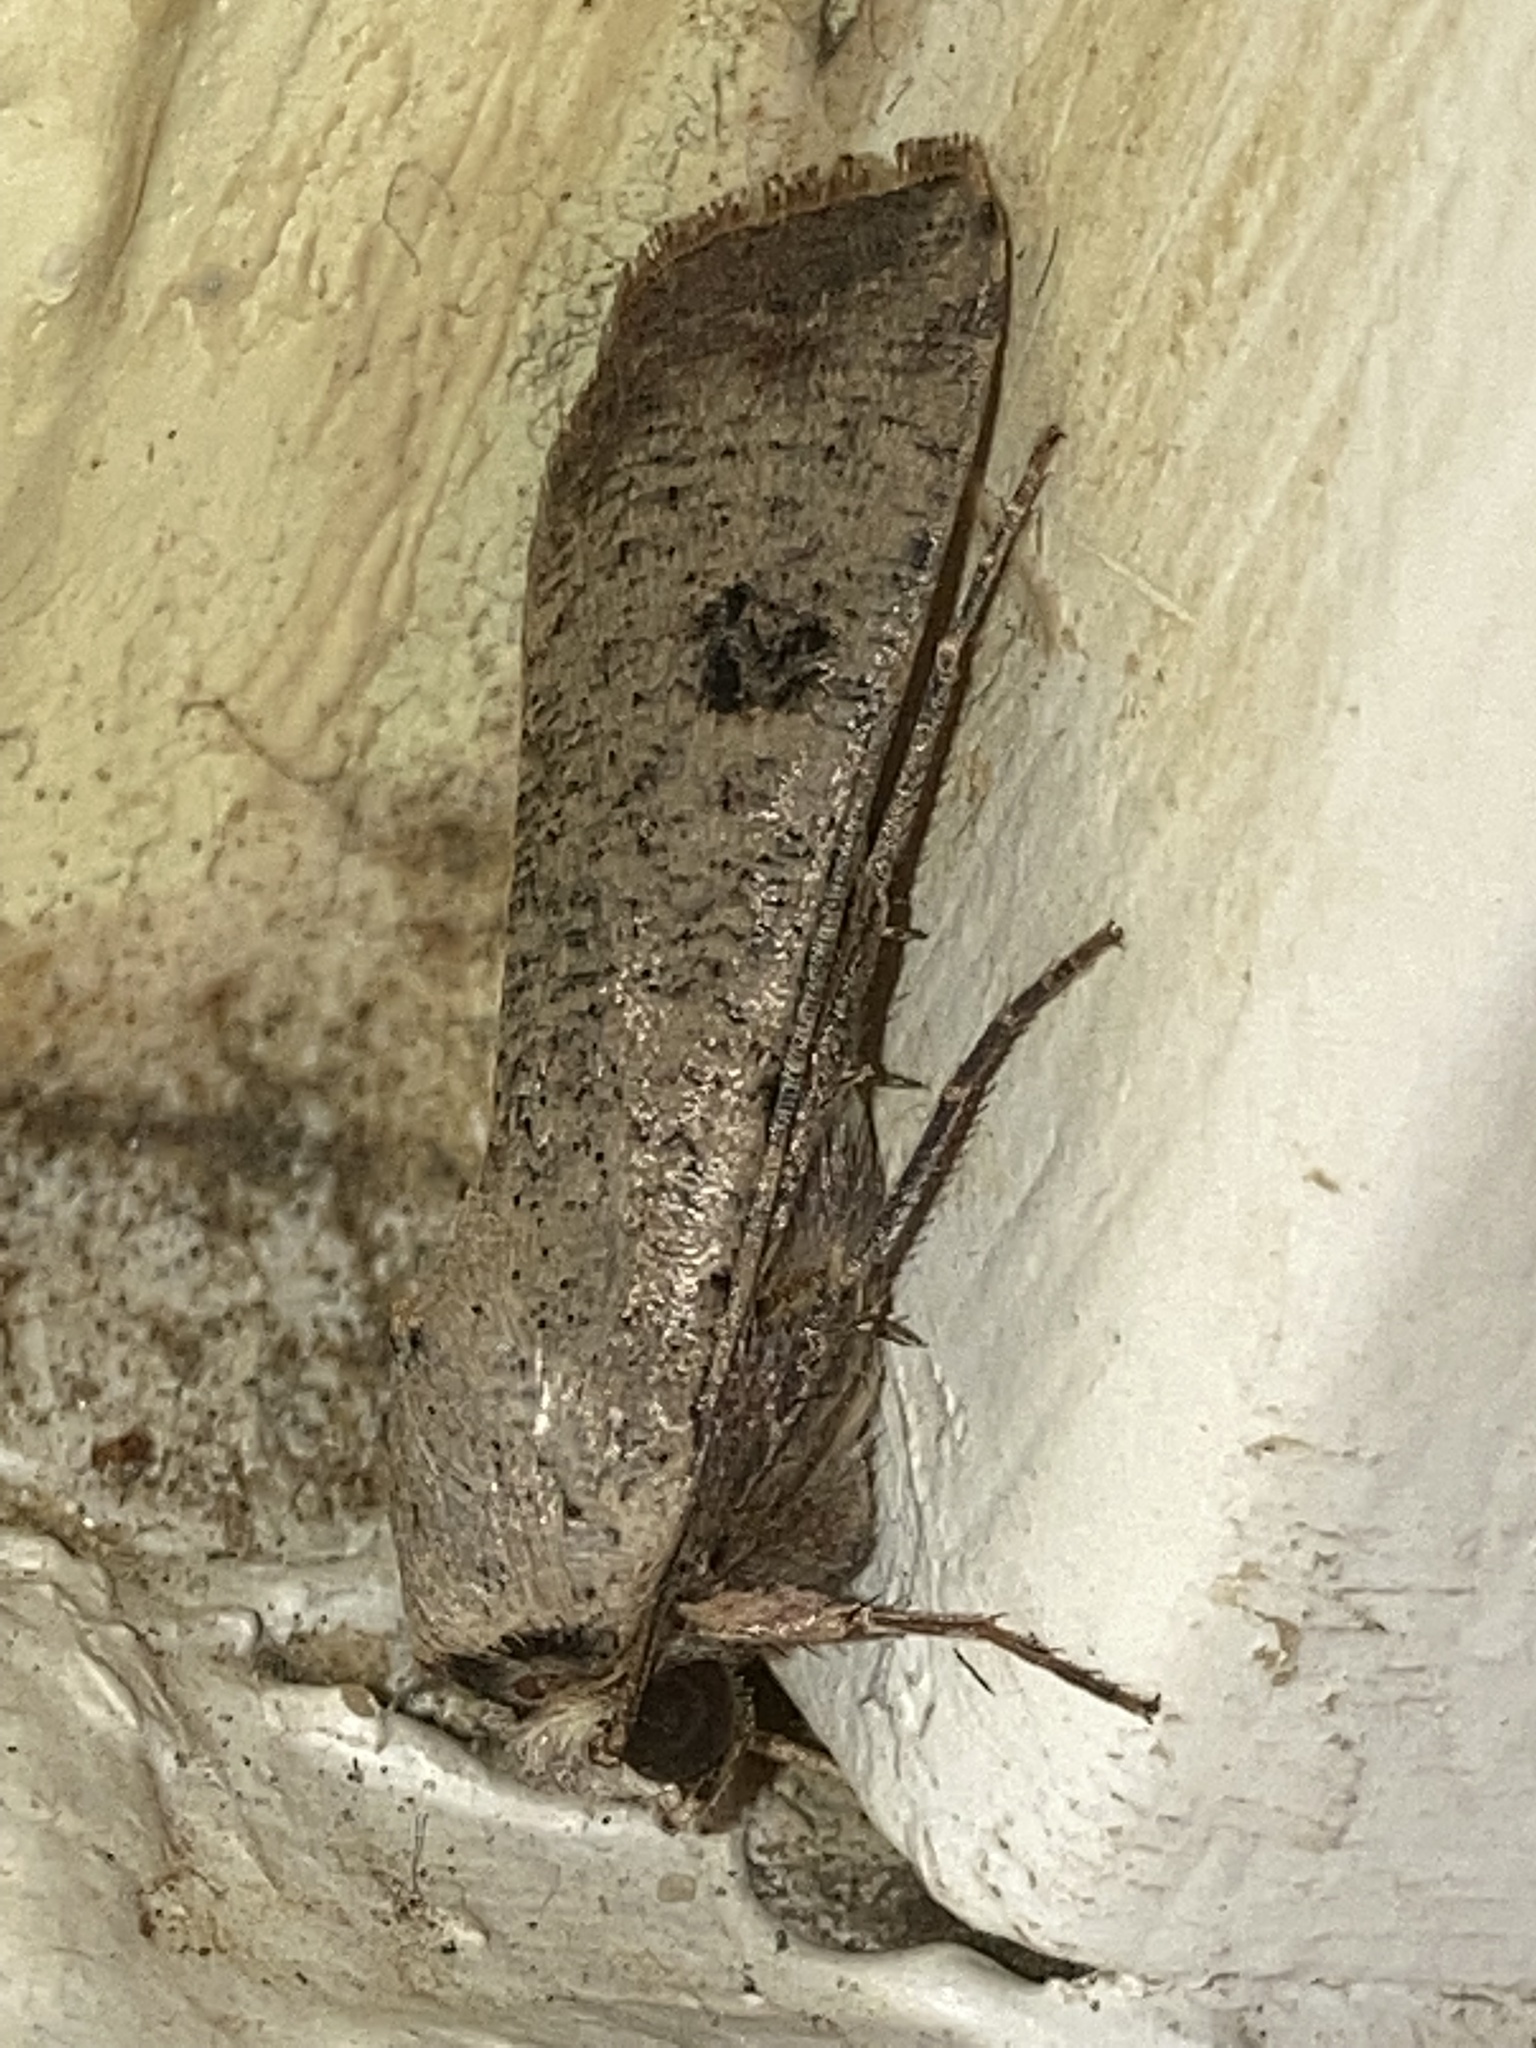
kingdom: Animalia
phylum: Arthropoda
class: Insecta
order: Lepidoptera
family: Noctuidae
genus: Anicla
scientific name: Anicla infecta
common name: Green cutworm
